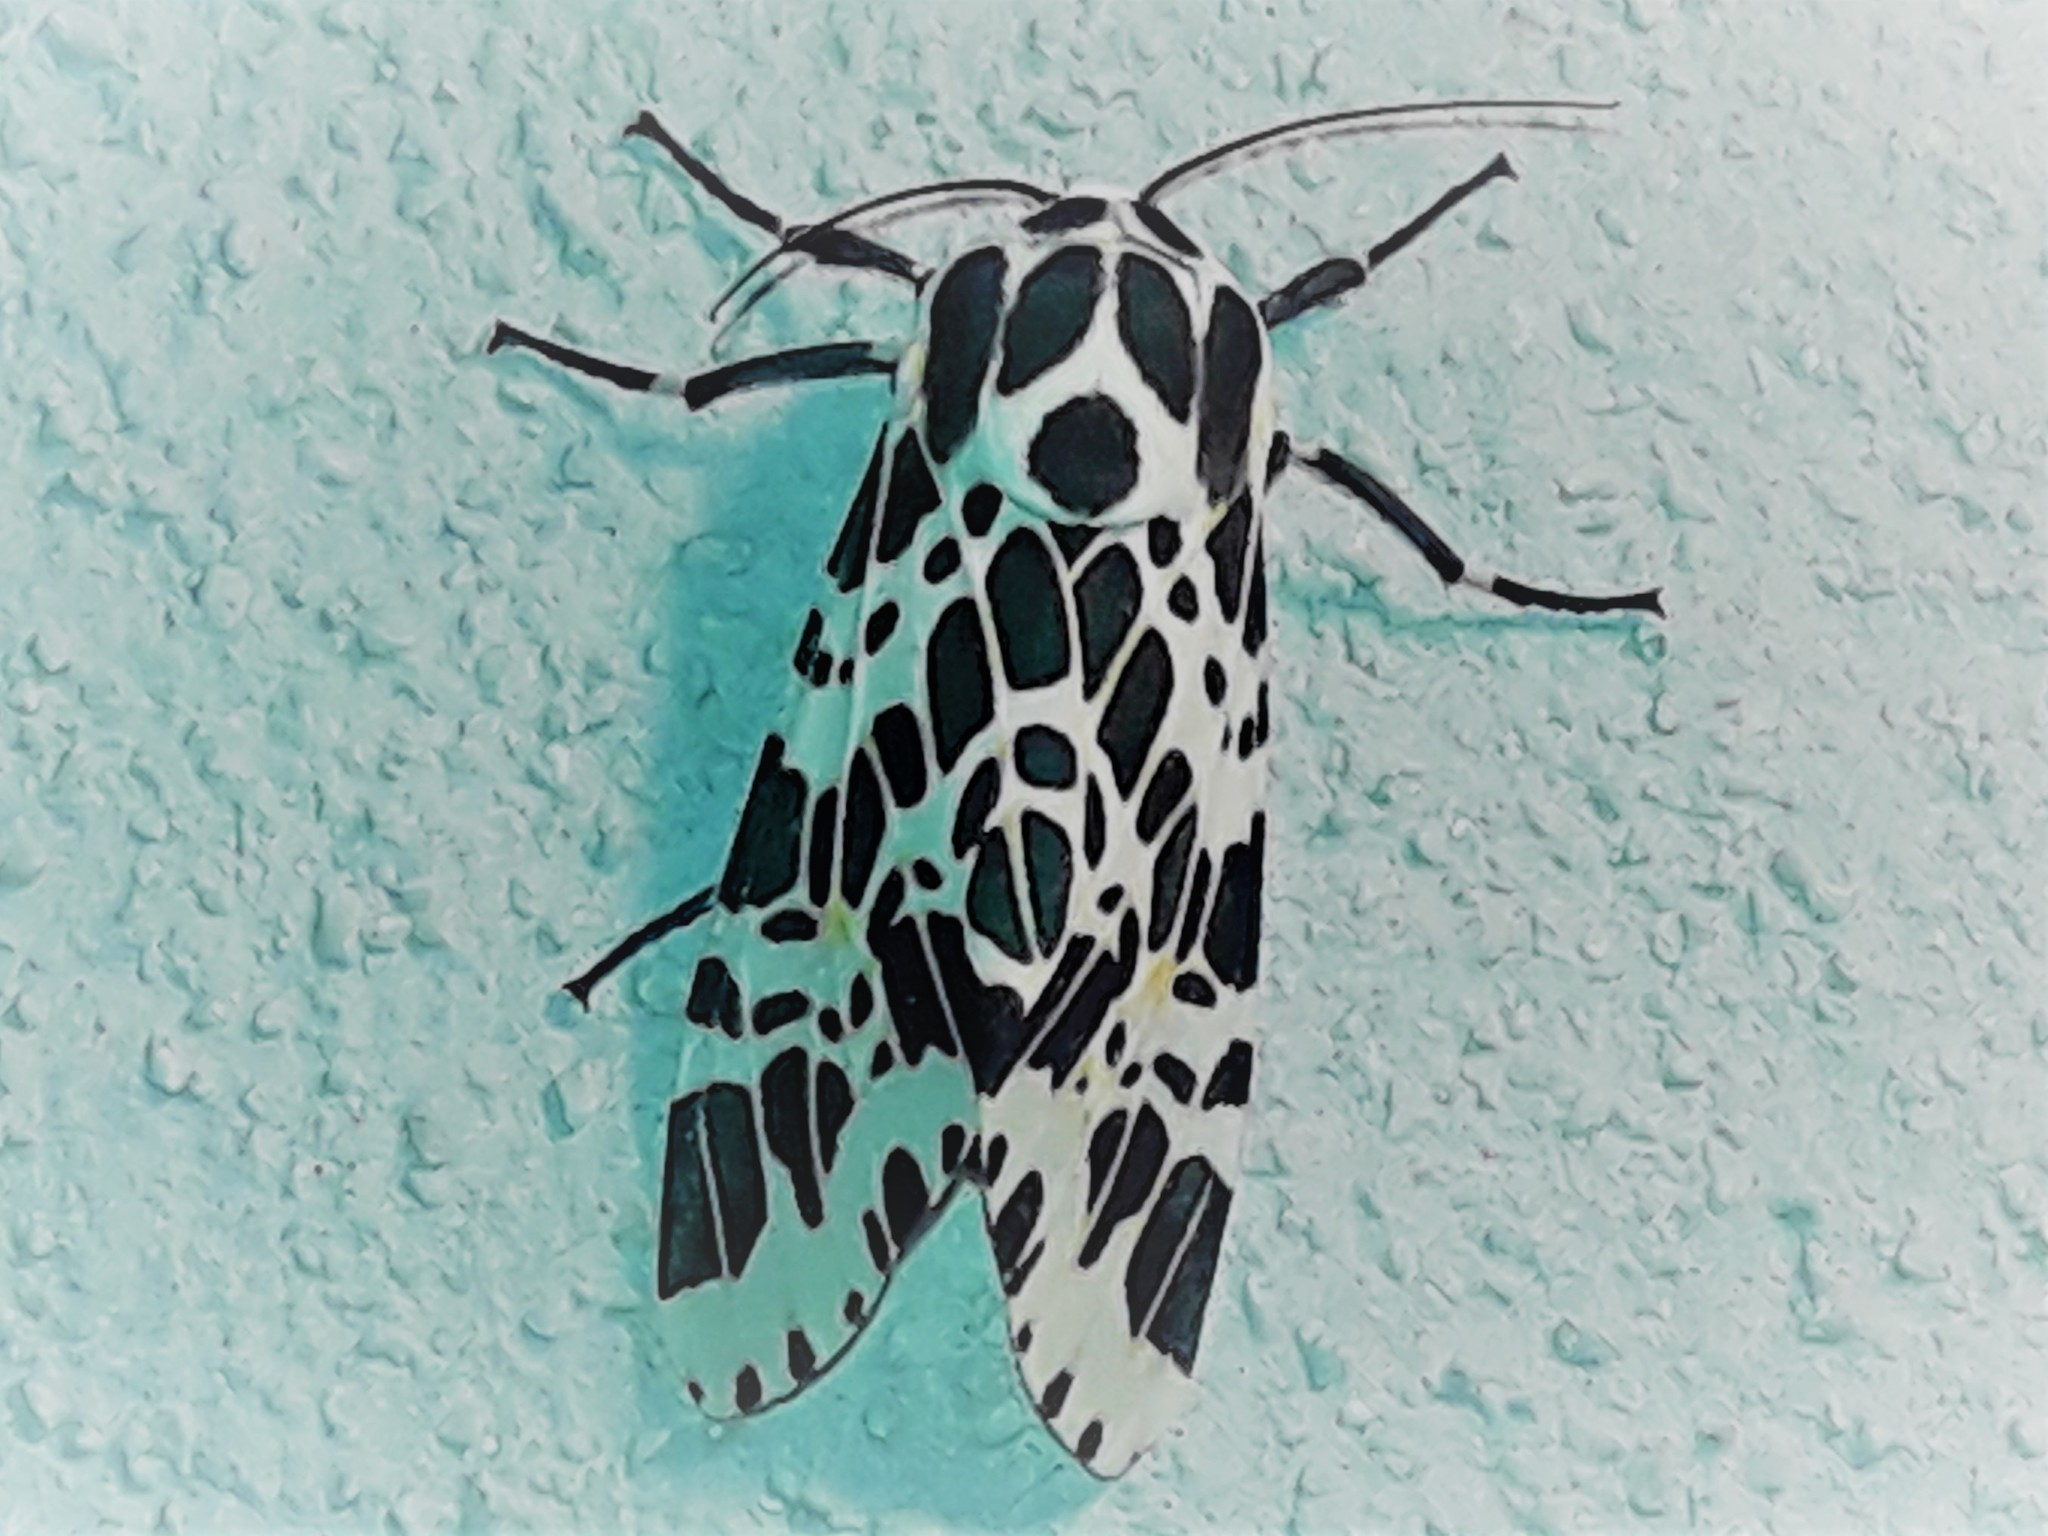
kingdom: Animalia
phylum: Arthropoda
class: Insecta
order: Lepidoptera
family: Erebidae
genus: Hypercompe
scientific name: Hypercompe laeta
